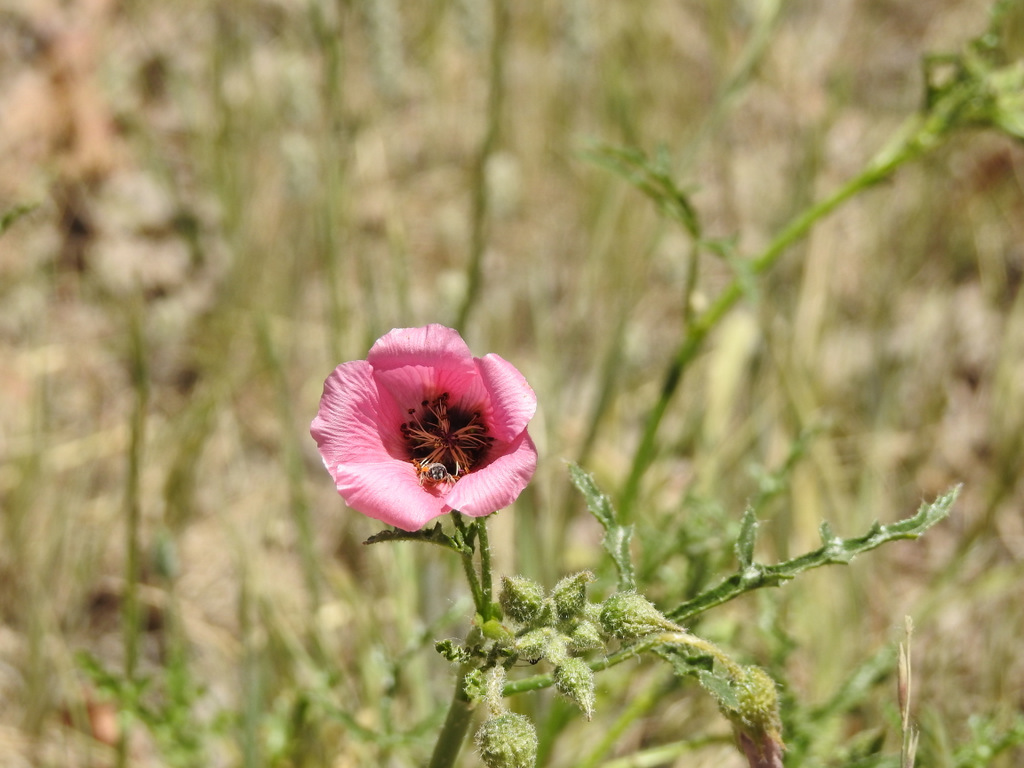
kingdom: Plantae
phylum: Tracheophyta
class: Magnoliopsida
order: Malvales
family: Malvaceae
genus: Lecanophora
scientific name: Lecanophora heterophylla
